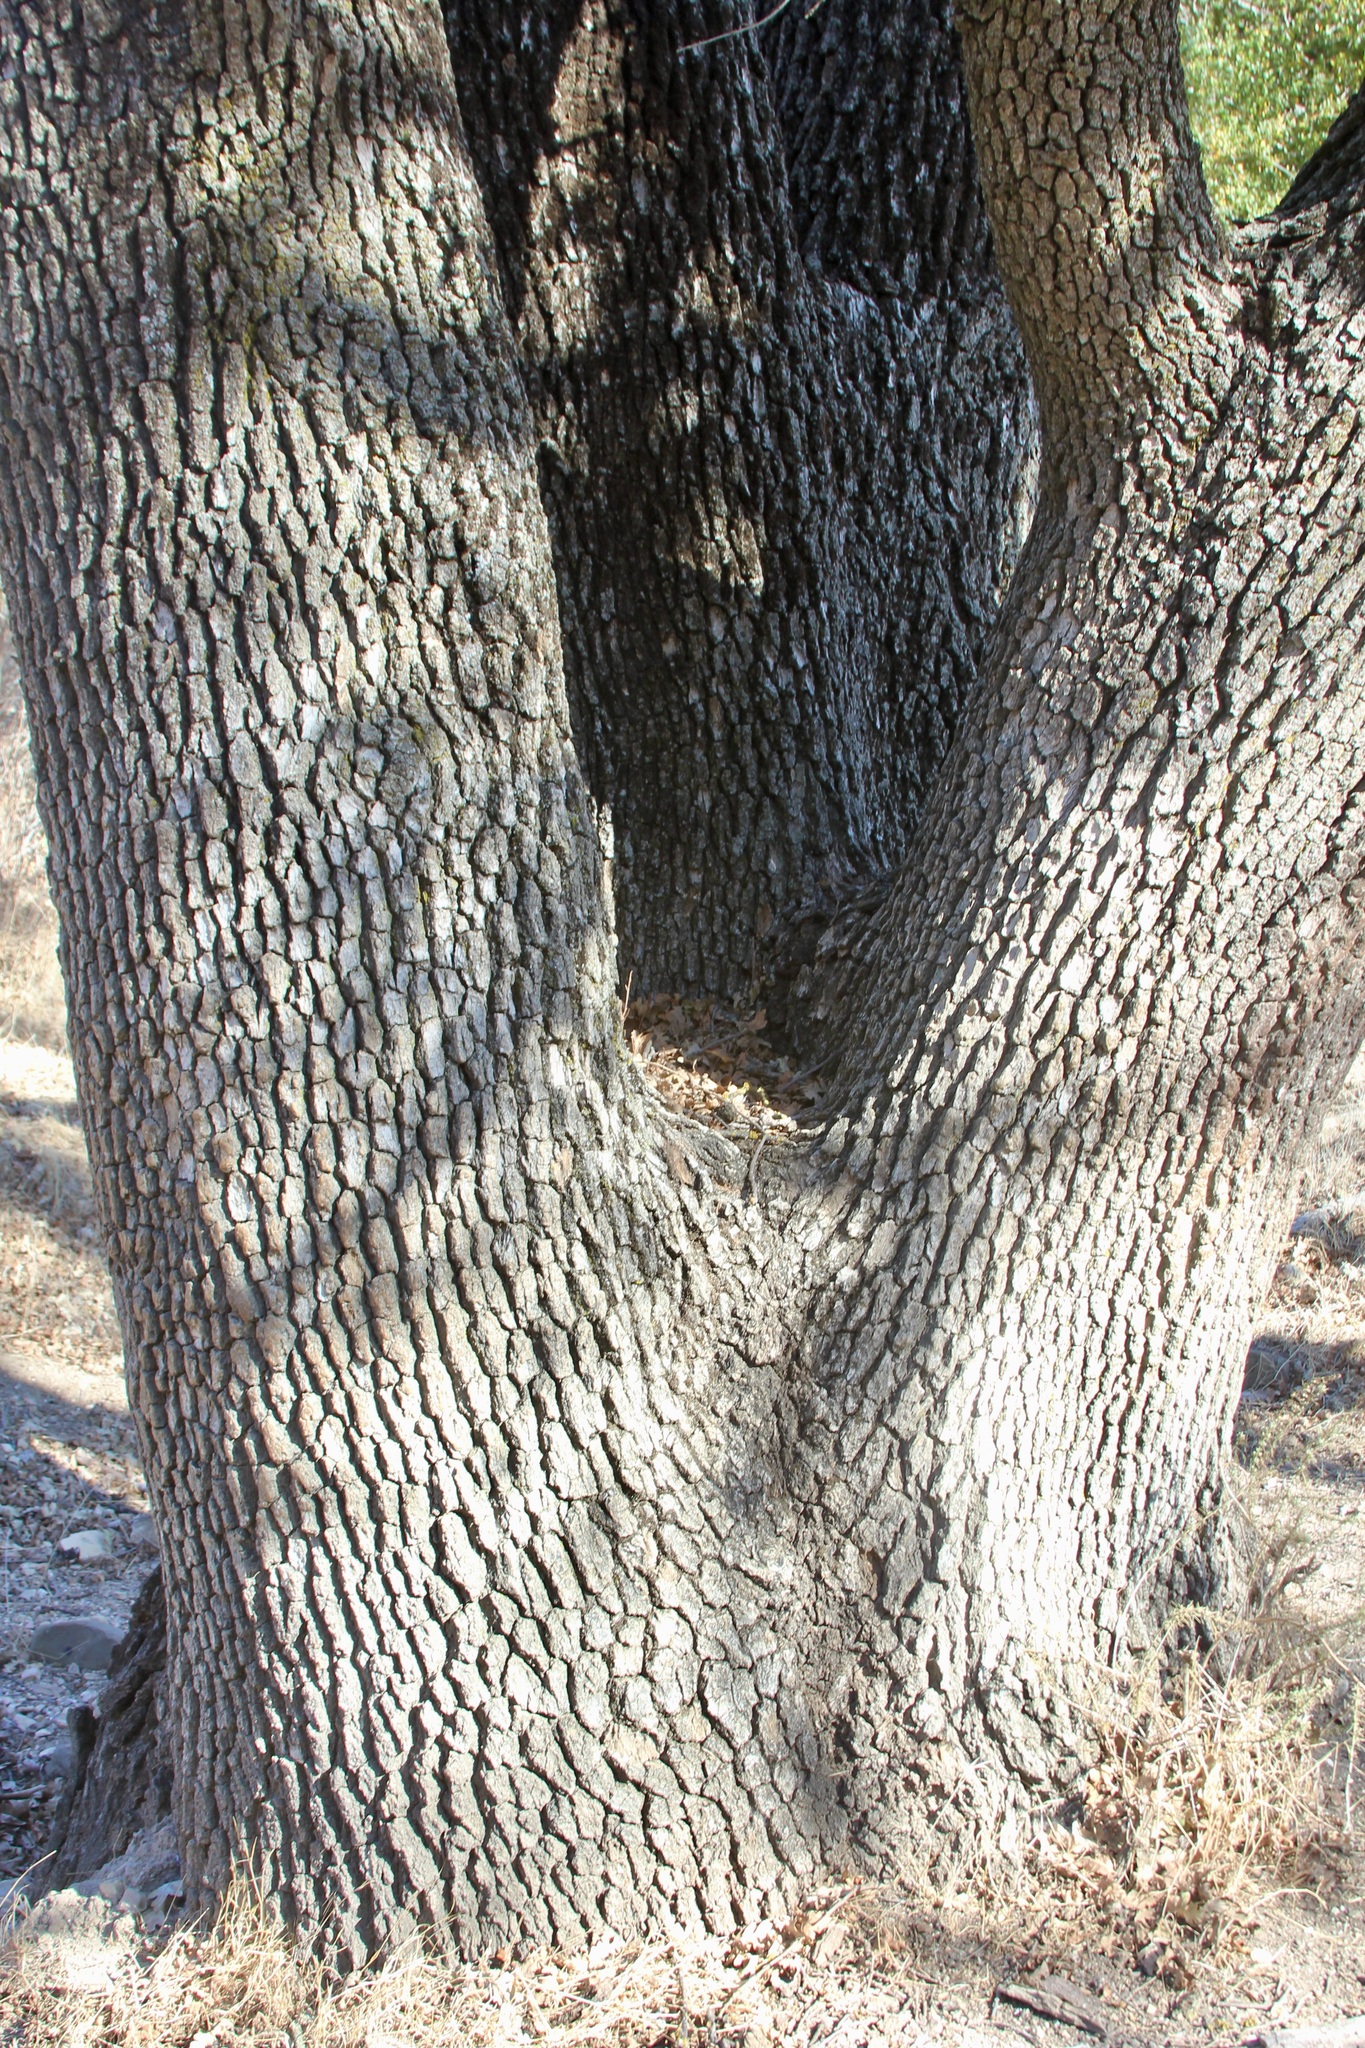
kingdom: Plantae
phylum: Tracheophyta
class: Magnoliopsida
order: Fagales
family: Fagaceae
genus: Quercus
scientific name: Quercus lobata
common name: Valley oak
